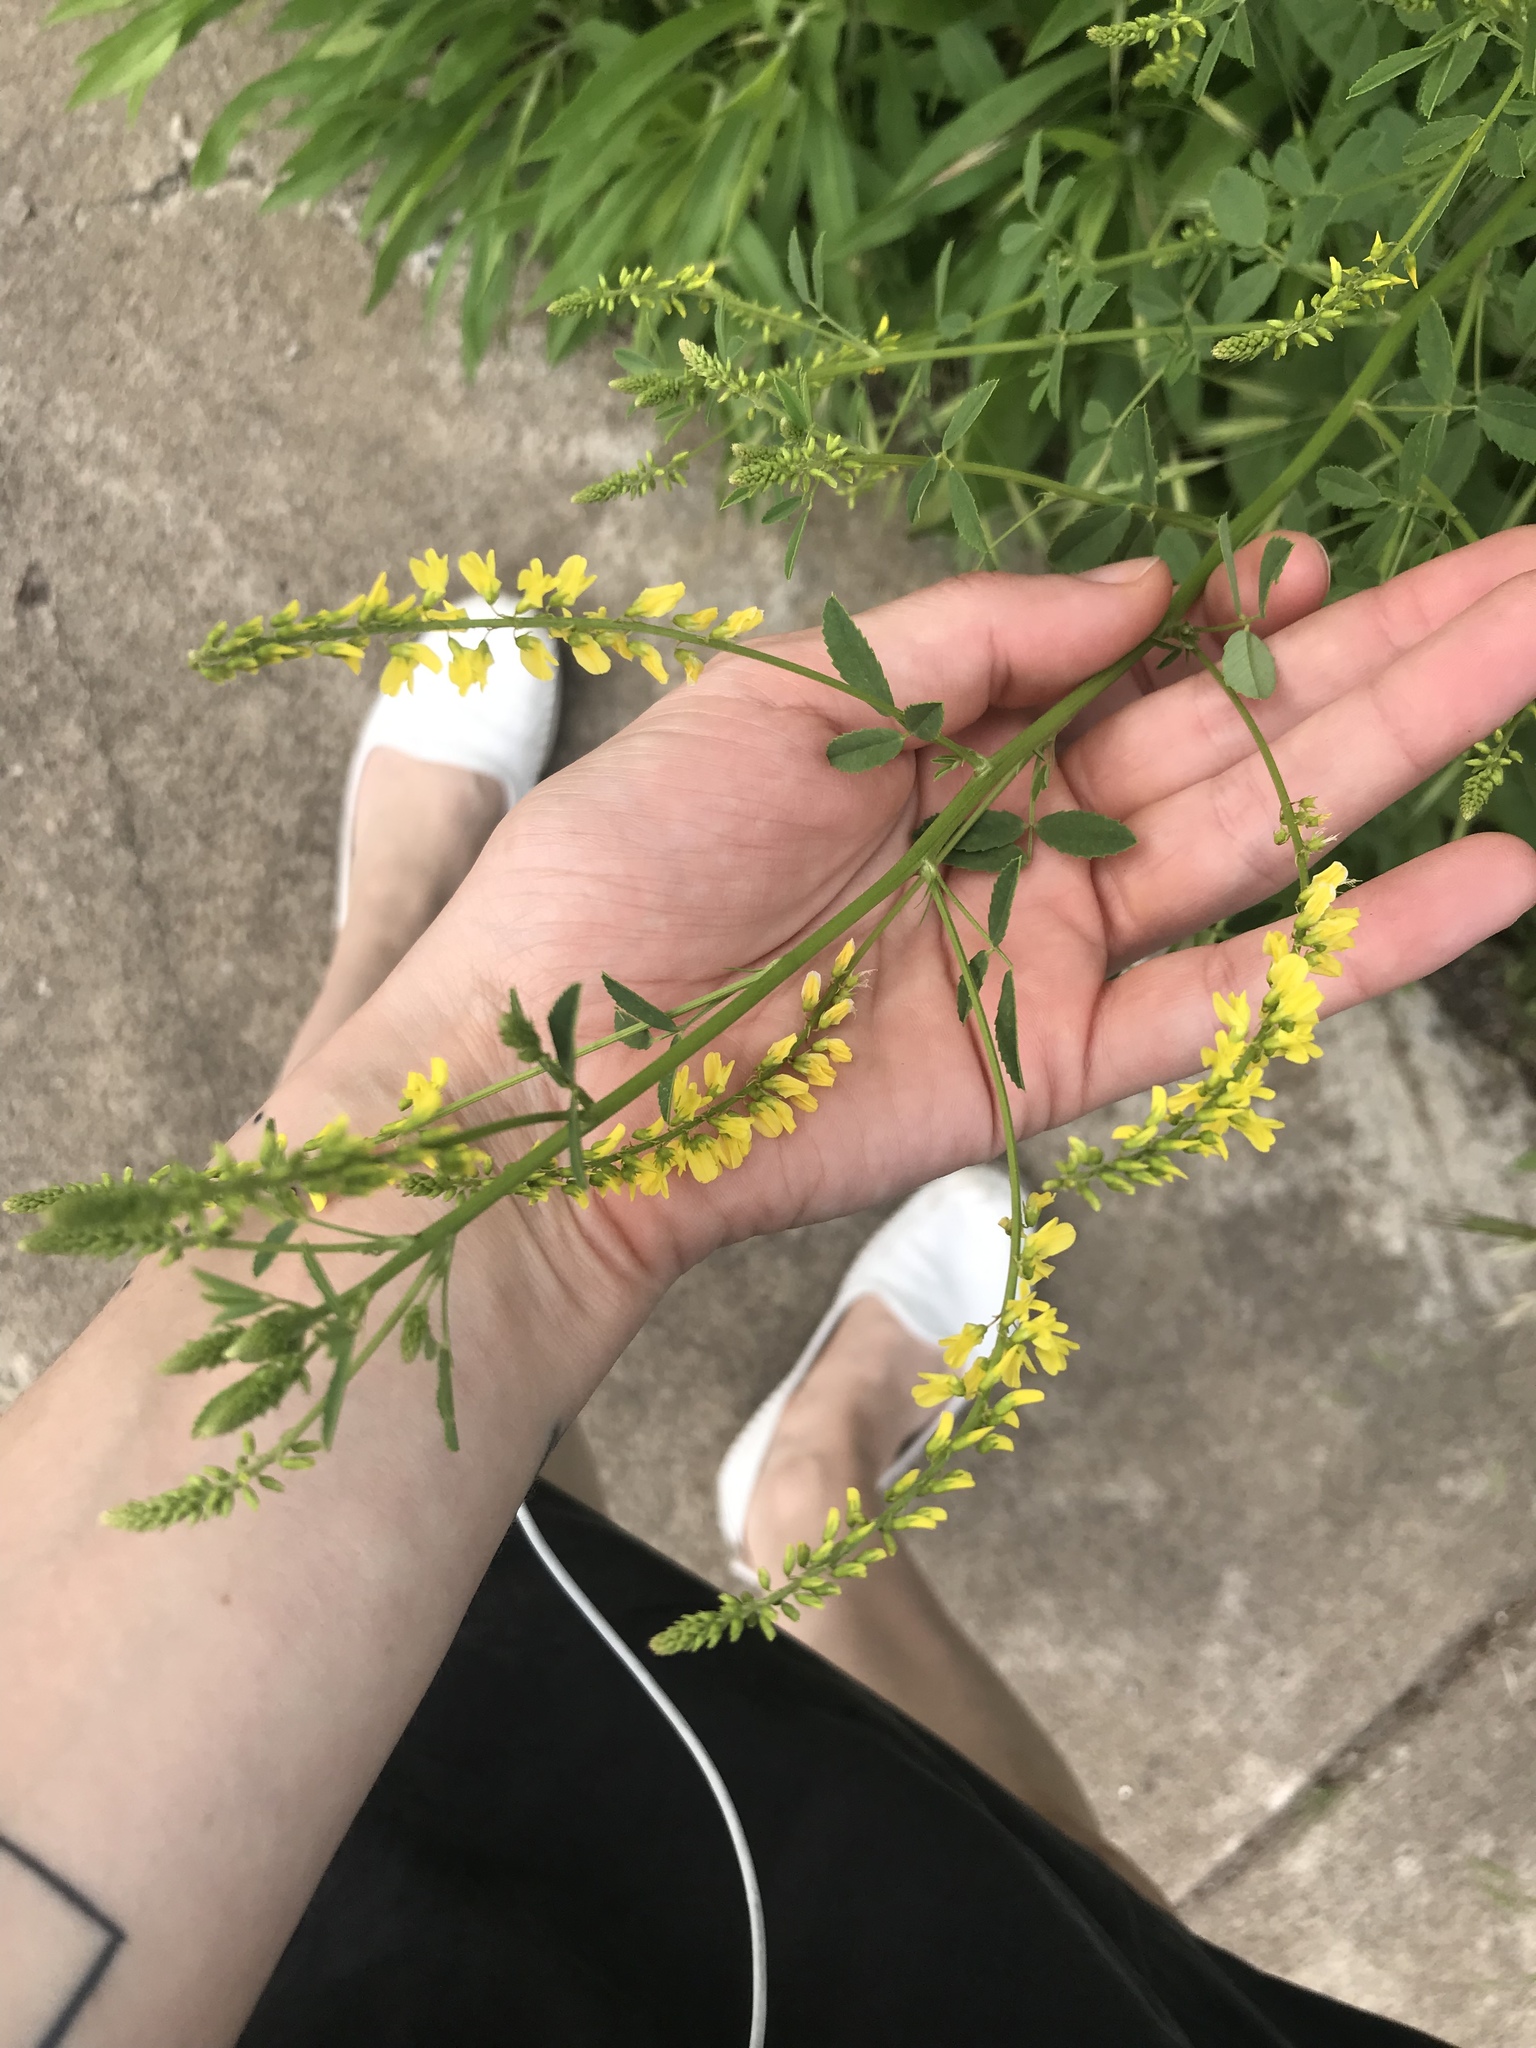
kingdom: Plantae
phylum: Tracheophyta
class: Magnoliopsida
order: Fabales
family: Fabaceae
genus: Melilotus
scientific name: Melilotus officinalis
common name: Sweetclover
